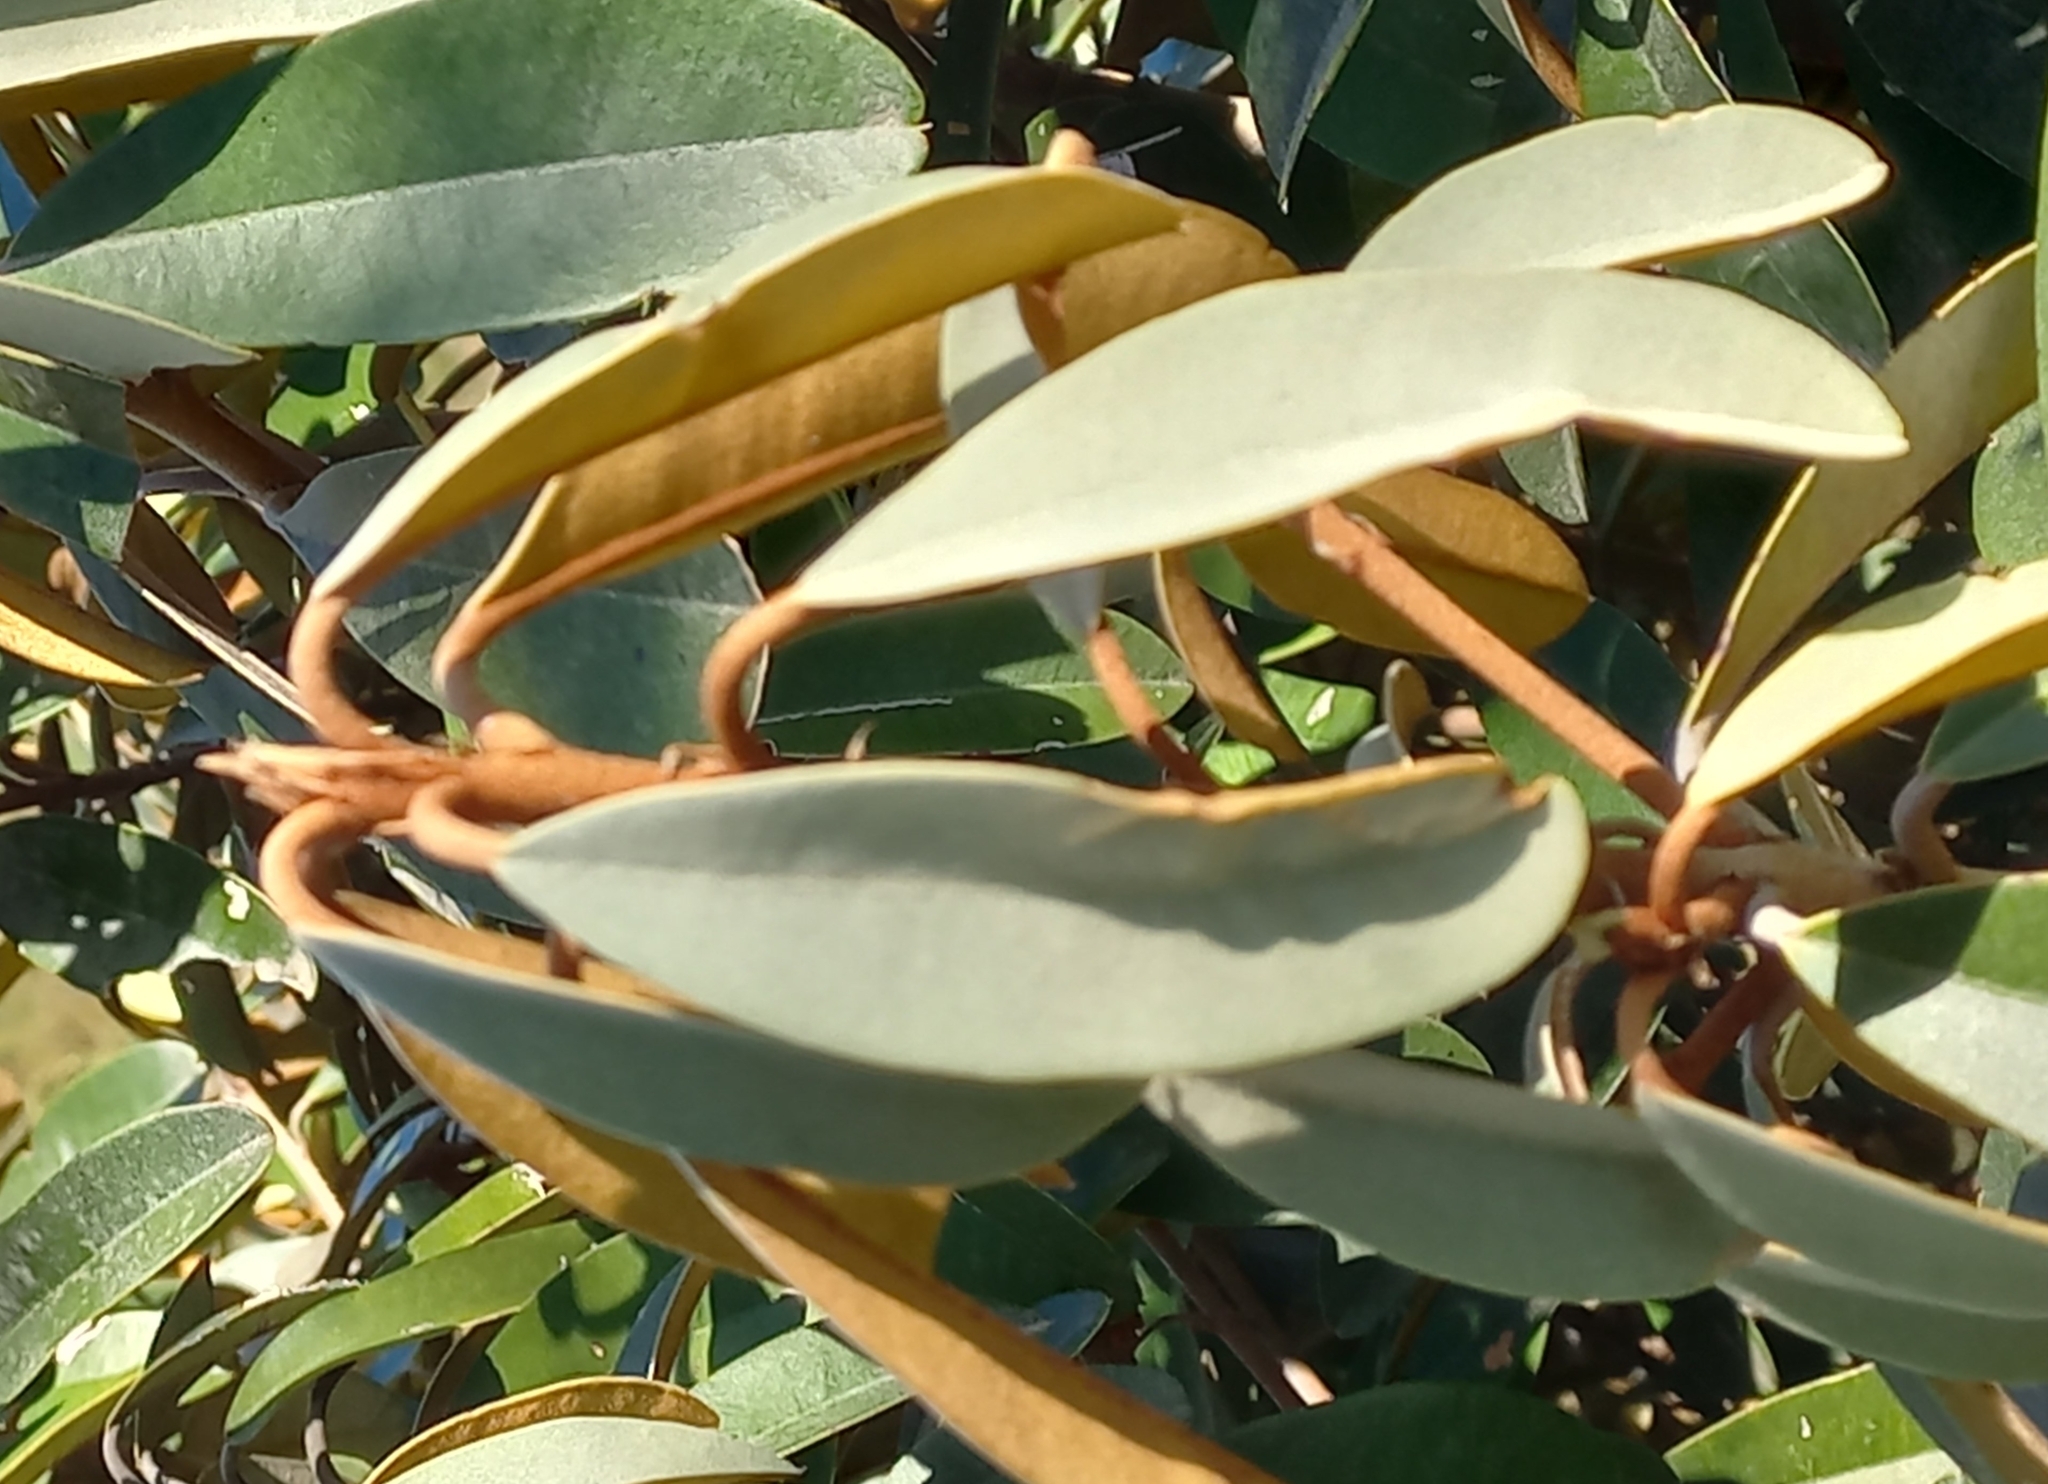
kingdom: Plantae
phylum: Tracheophyta
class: Magnoliopsida
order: Ericales
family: Sapotaceae
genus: Englerophytum
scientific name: Englerophytum magalismontanum
